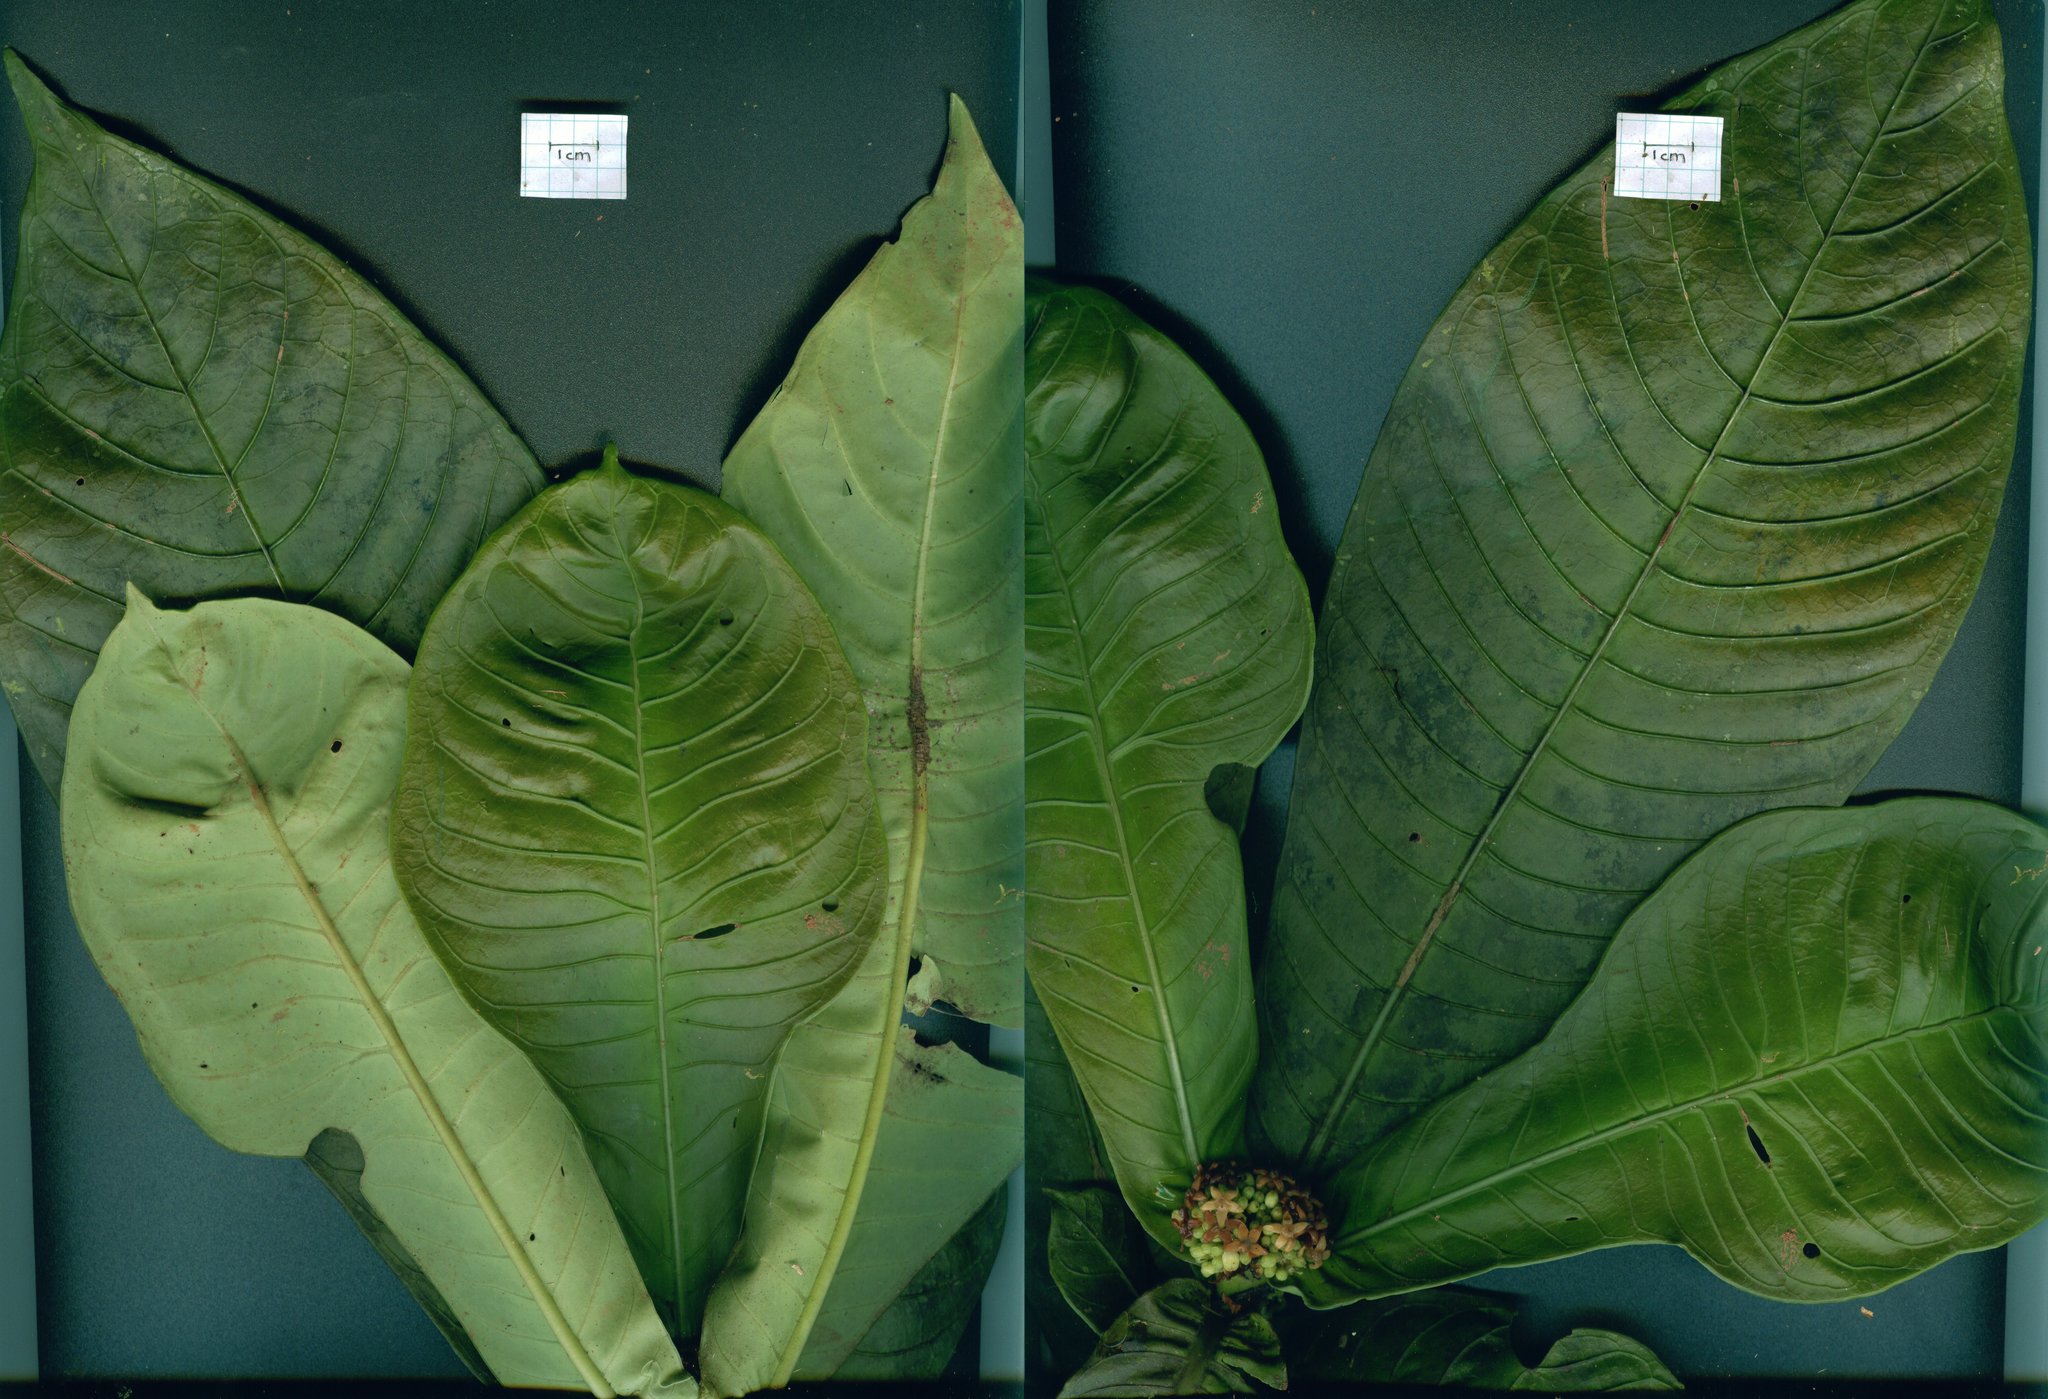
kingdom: Plantae
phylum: Tracheophyta
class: Magnoliopsida
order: Gentianales
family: Rubiaceae
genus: Psychotria
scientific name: Psychotria chitariana
